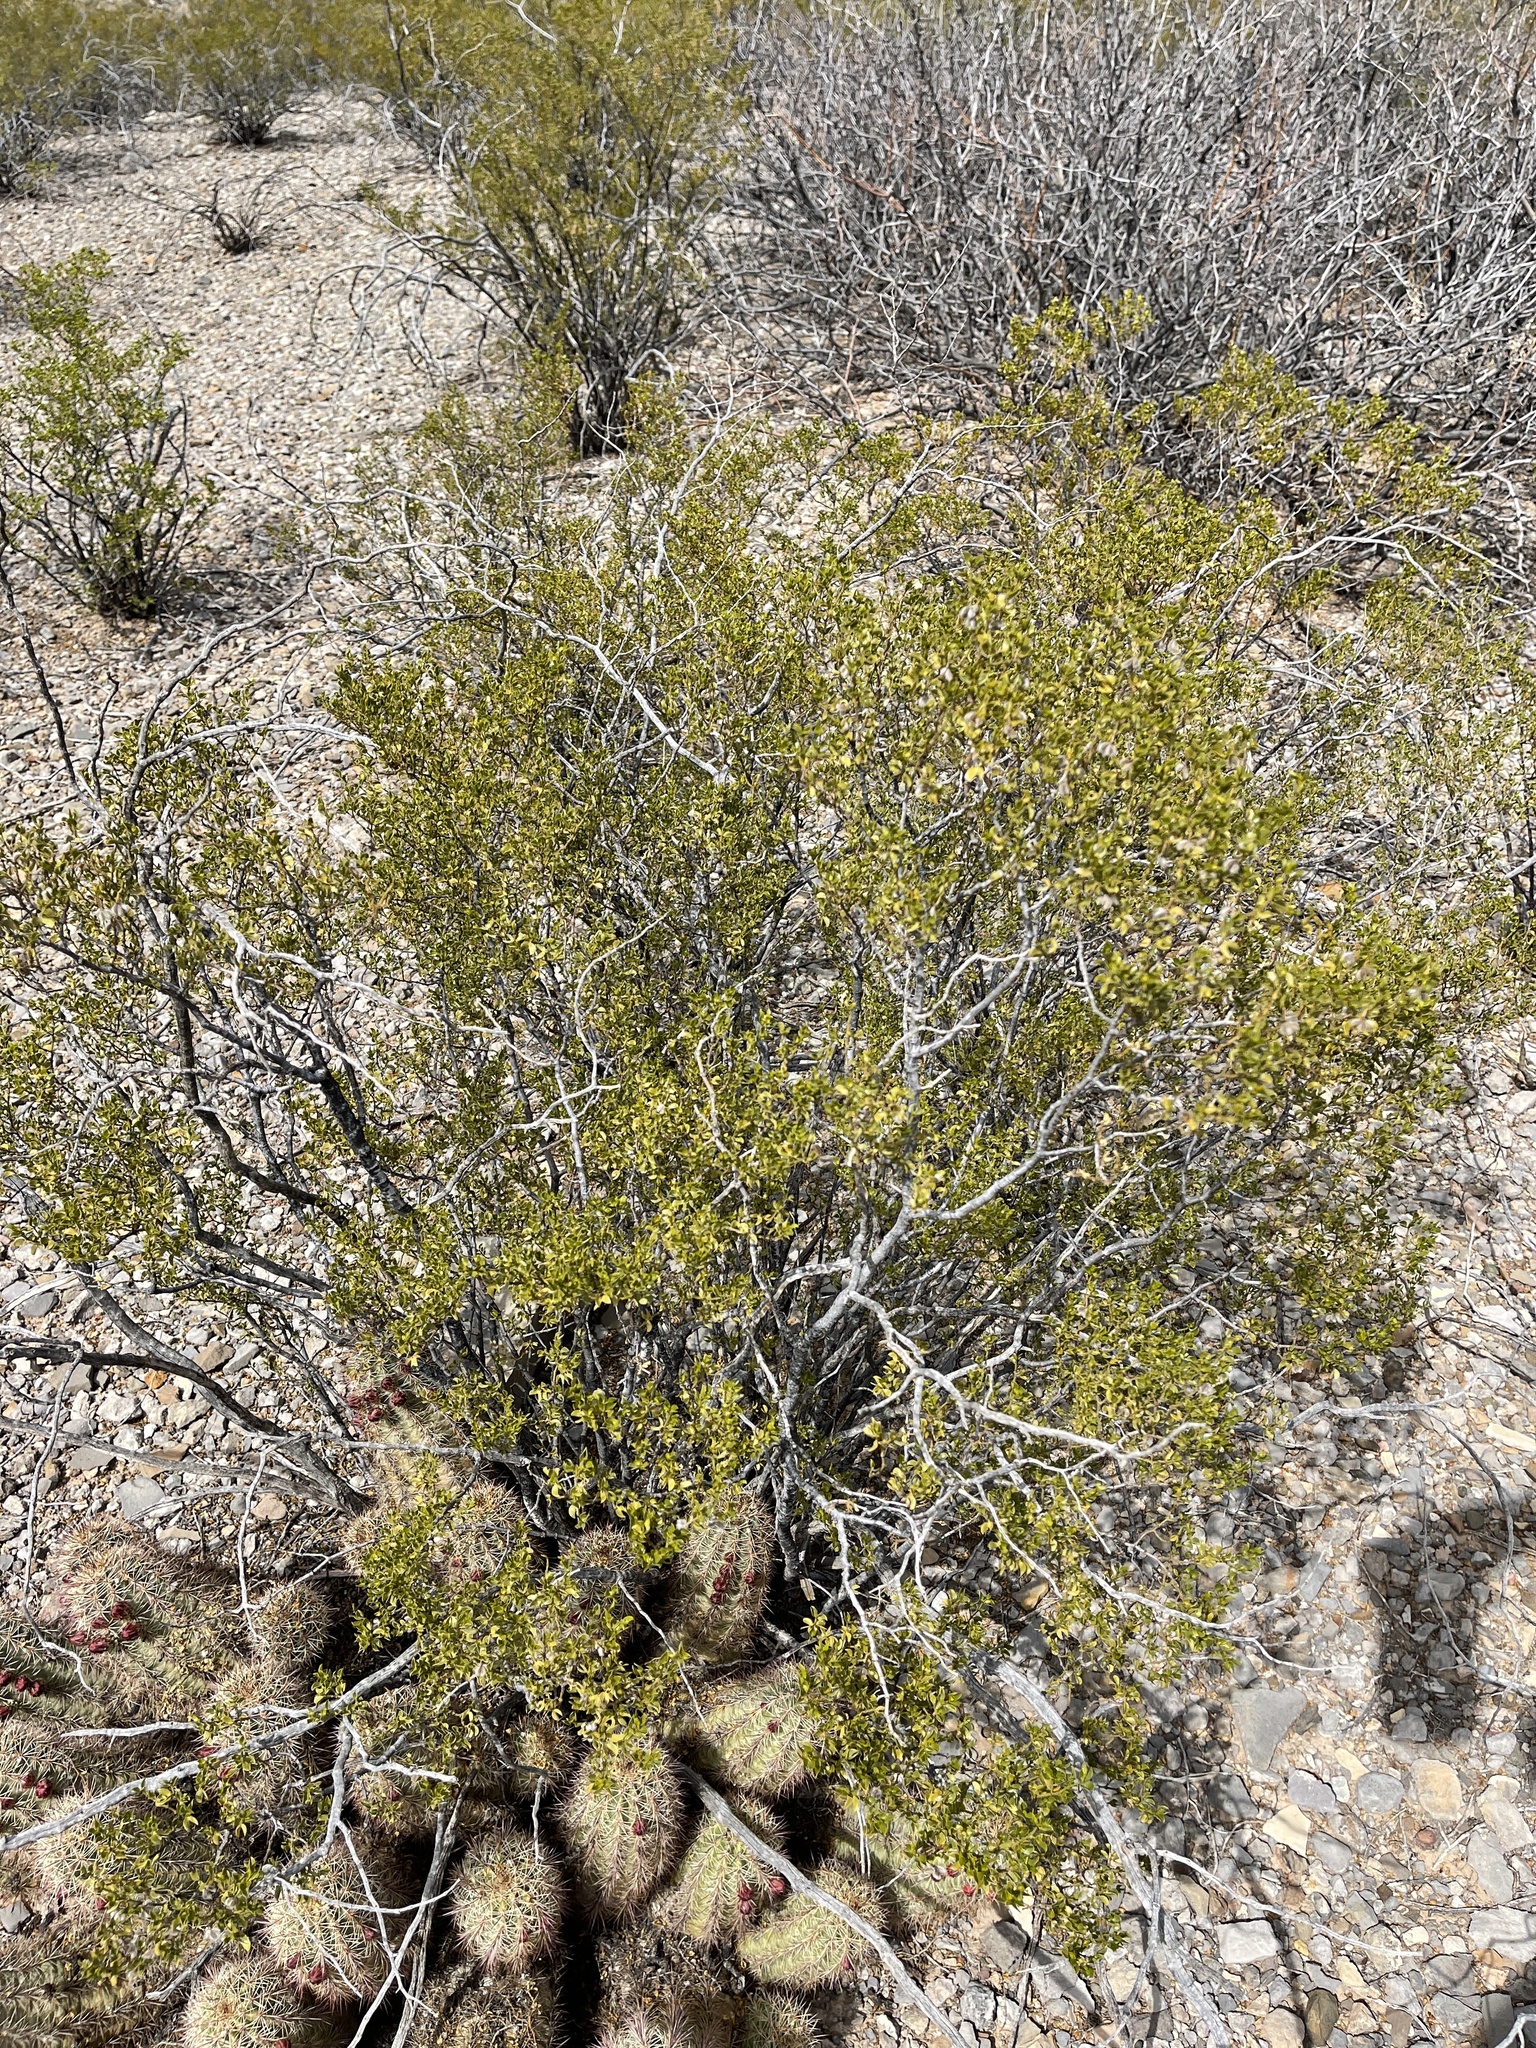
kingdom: Plantae
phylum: Tracheophyta
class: Magnoliopsida
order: Zygophyllales
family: Zygophyllaceae
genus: Larrea
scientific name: Larrea tridentata
